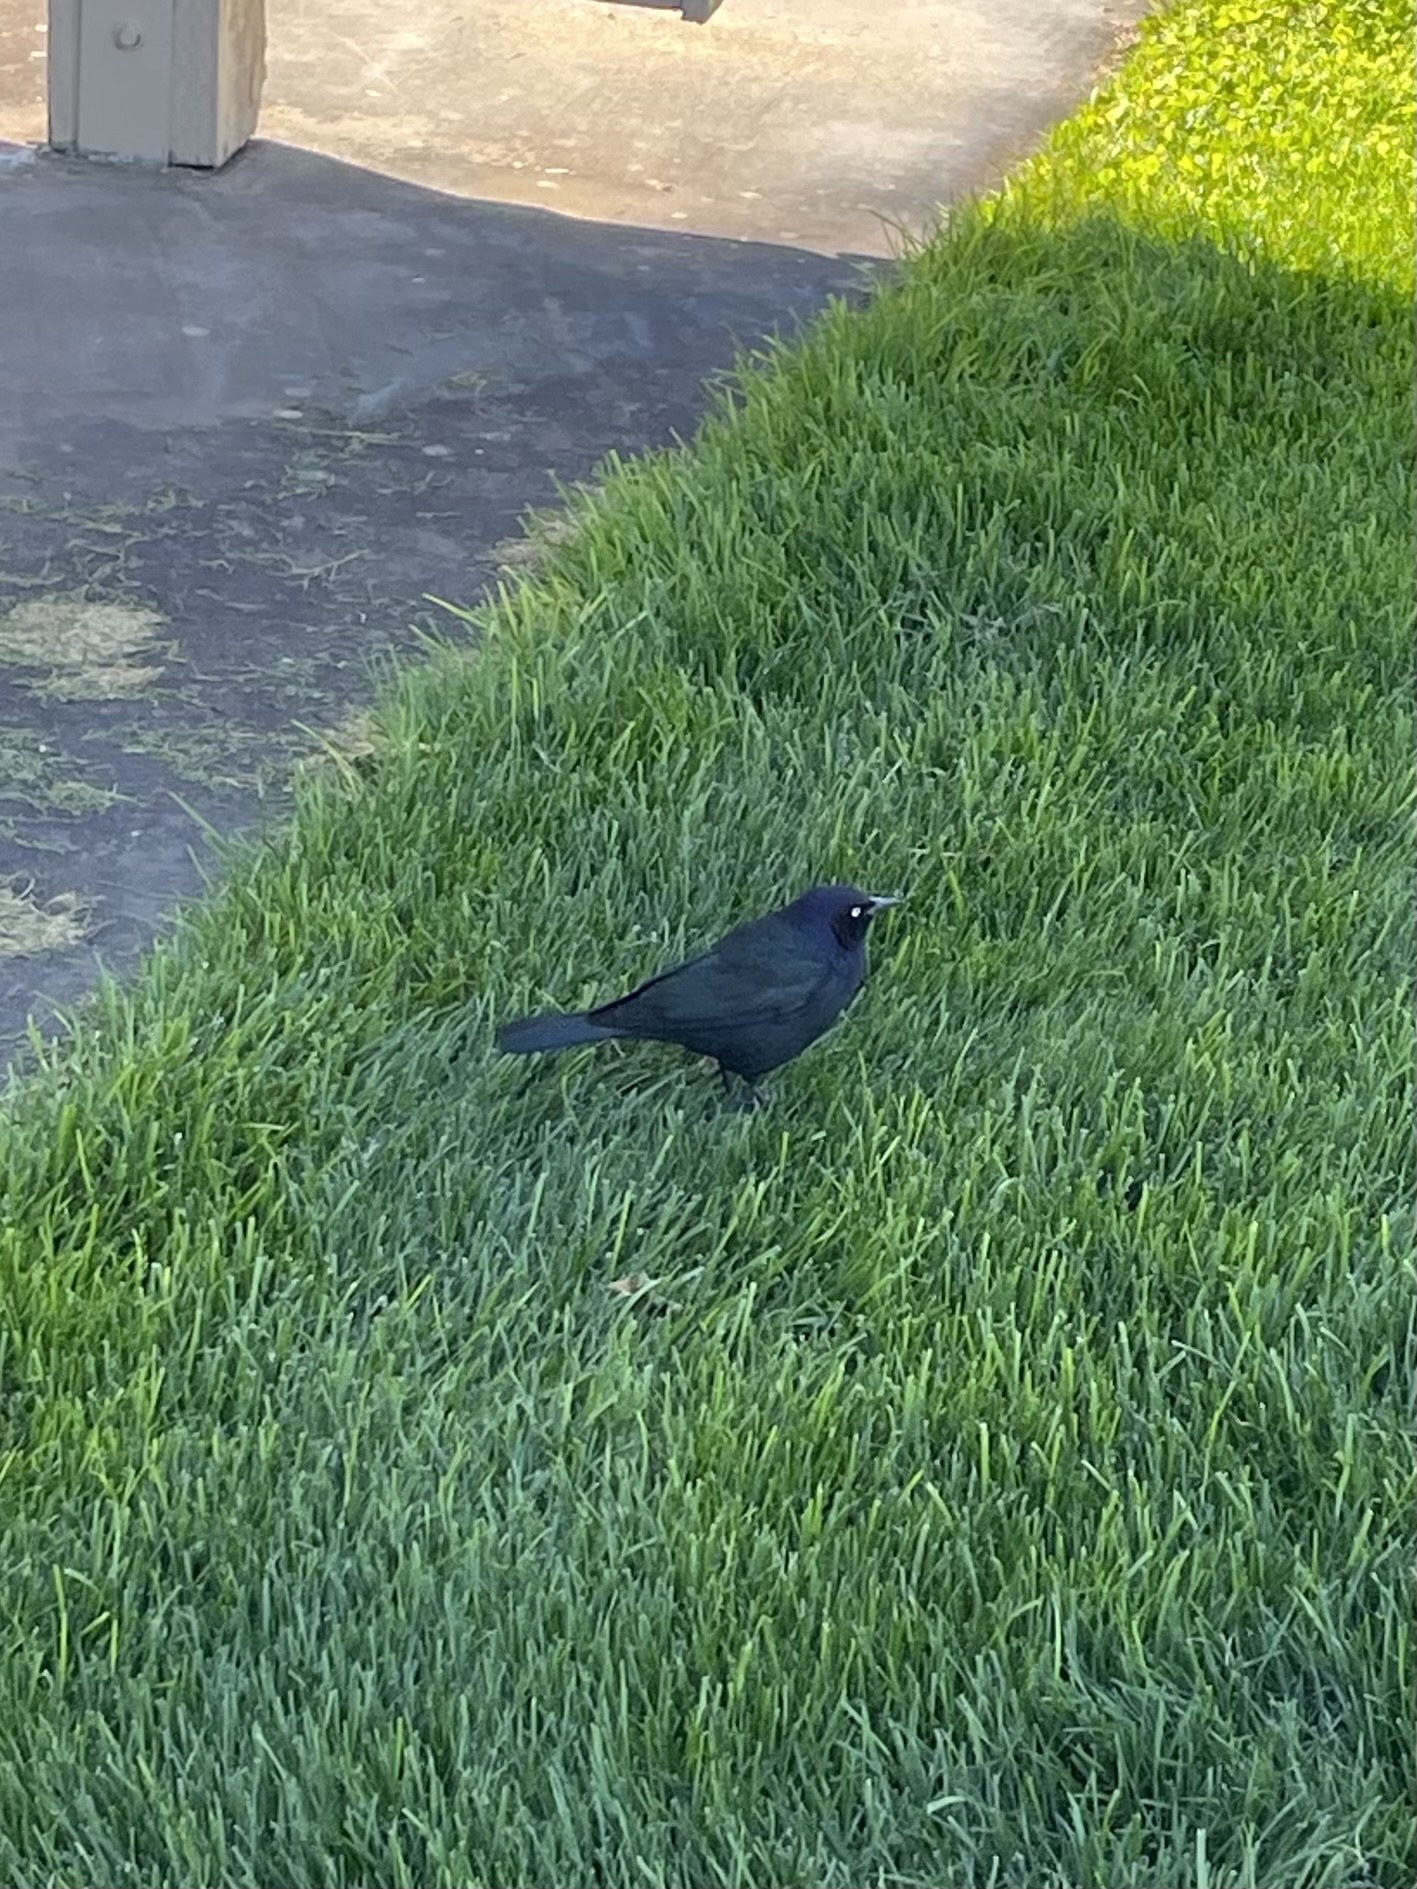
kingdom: Animalia
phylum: Chordata
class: Aves
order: Passeriformes
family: Icteridae
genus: Euphagus
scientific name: Euphagus cyanocephalus
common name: Brewer's blackbird
